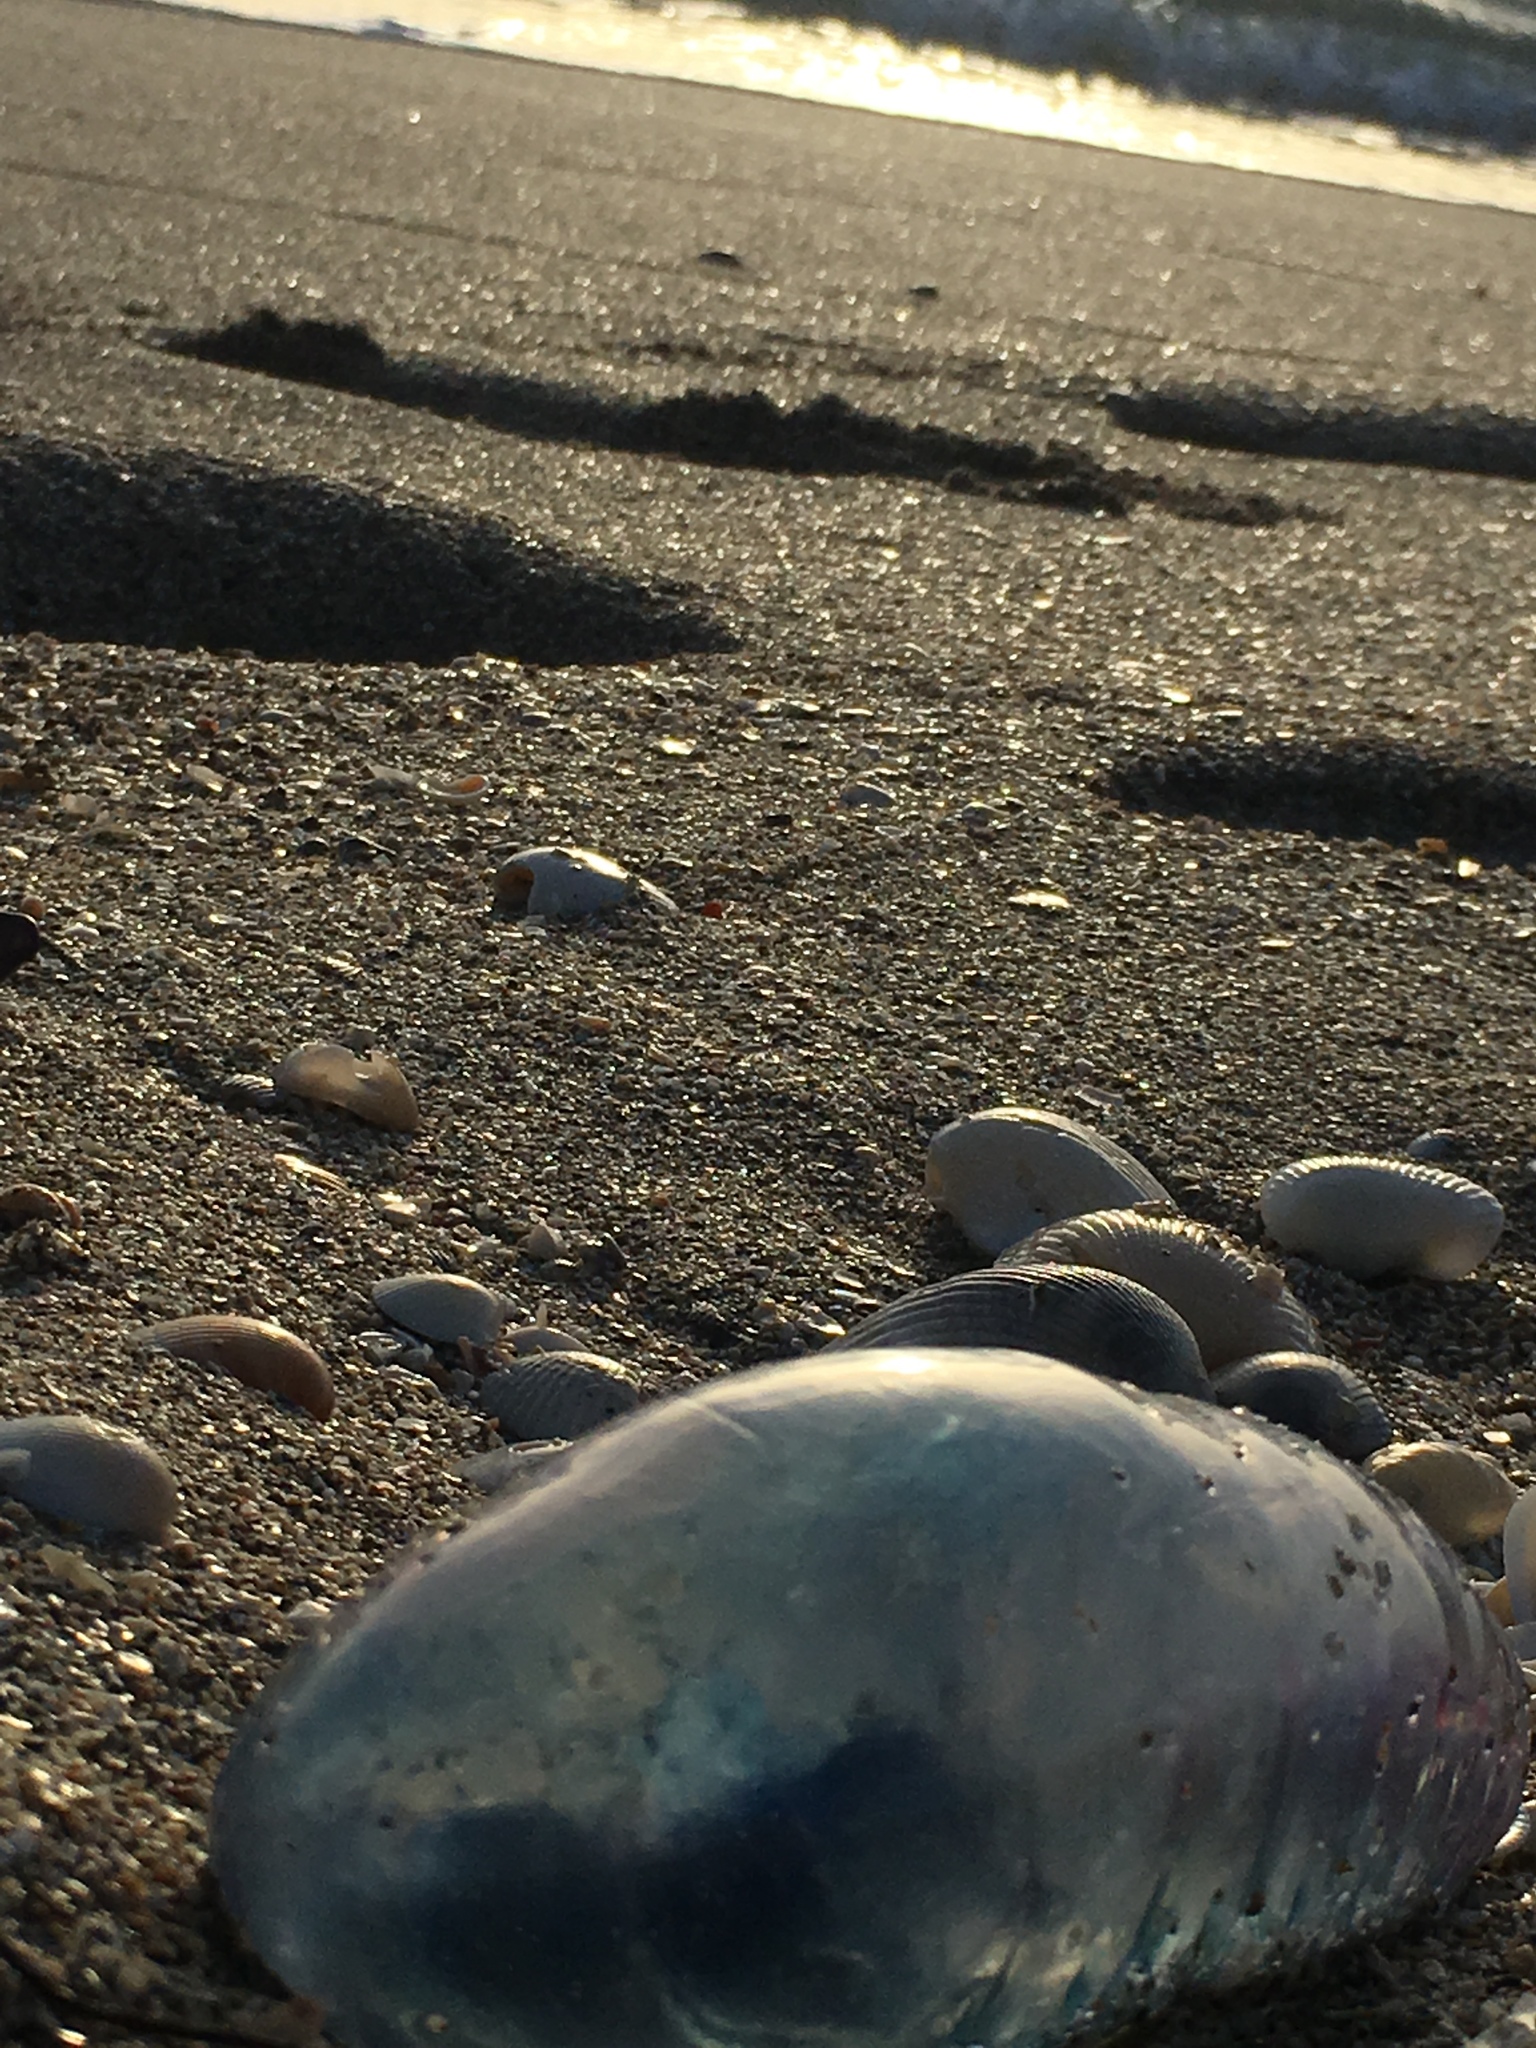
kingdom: Animalia
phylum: Cnidaria
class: Hydrozoa
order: Siphonophorae
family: Physaliidae
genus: Physalia
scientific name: Physalia physalis
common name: Portuguese man-of-war
